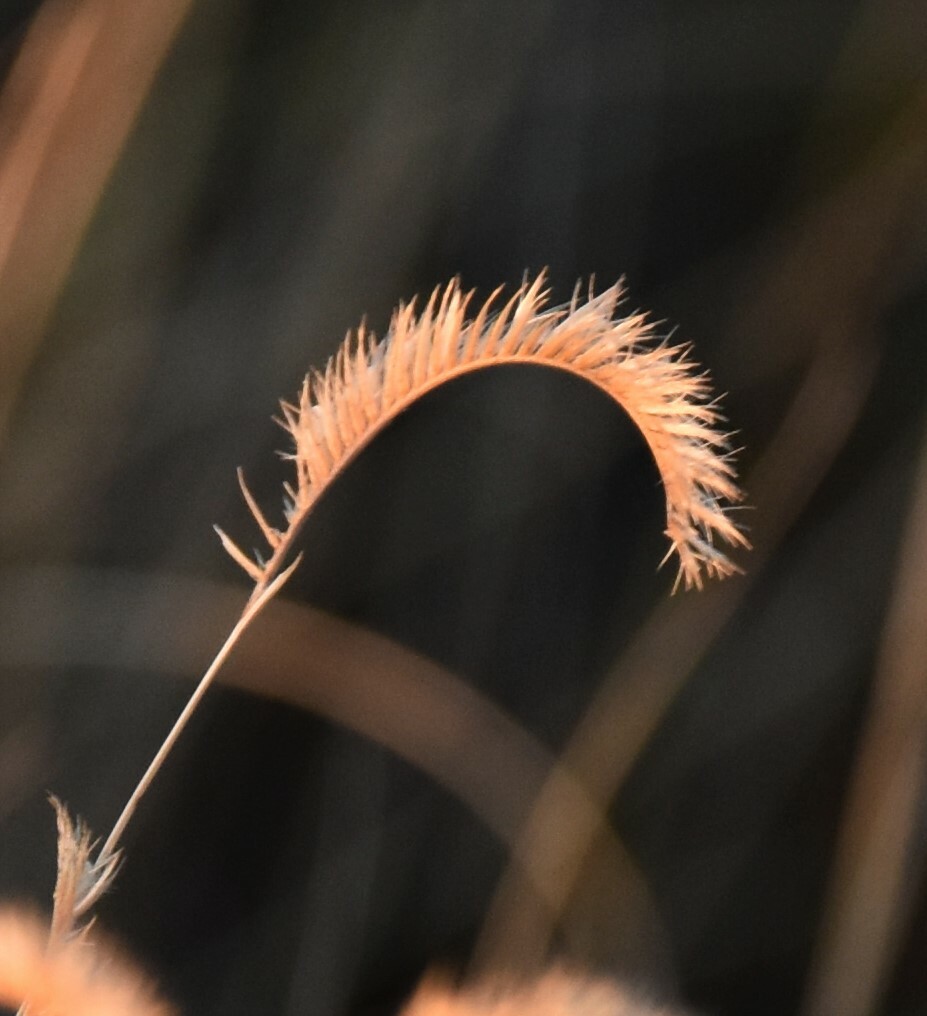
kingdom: Plantae
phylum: Tracheophyta
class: Liliopsida
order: Poales
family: Poaceae
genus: Bouteloua
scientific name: Bouteloua gracilis
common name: Blue grama
